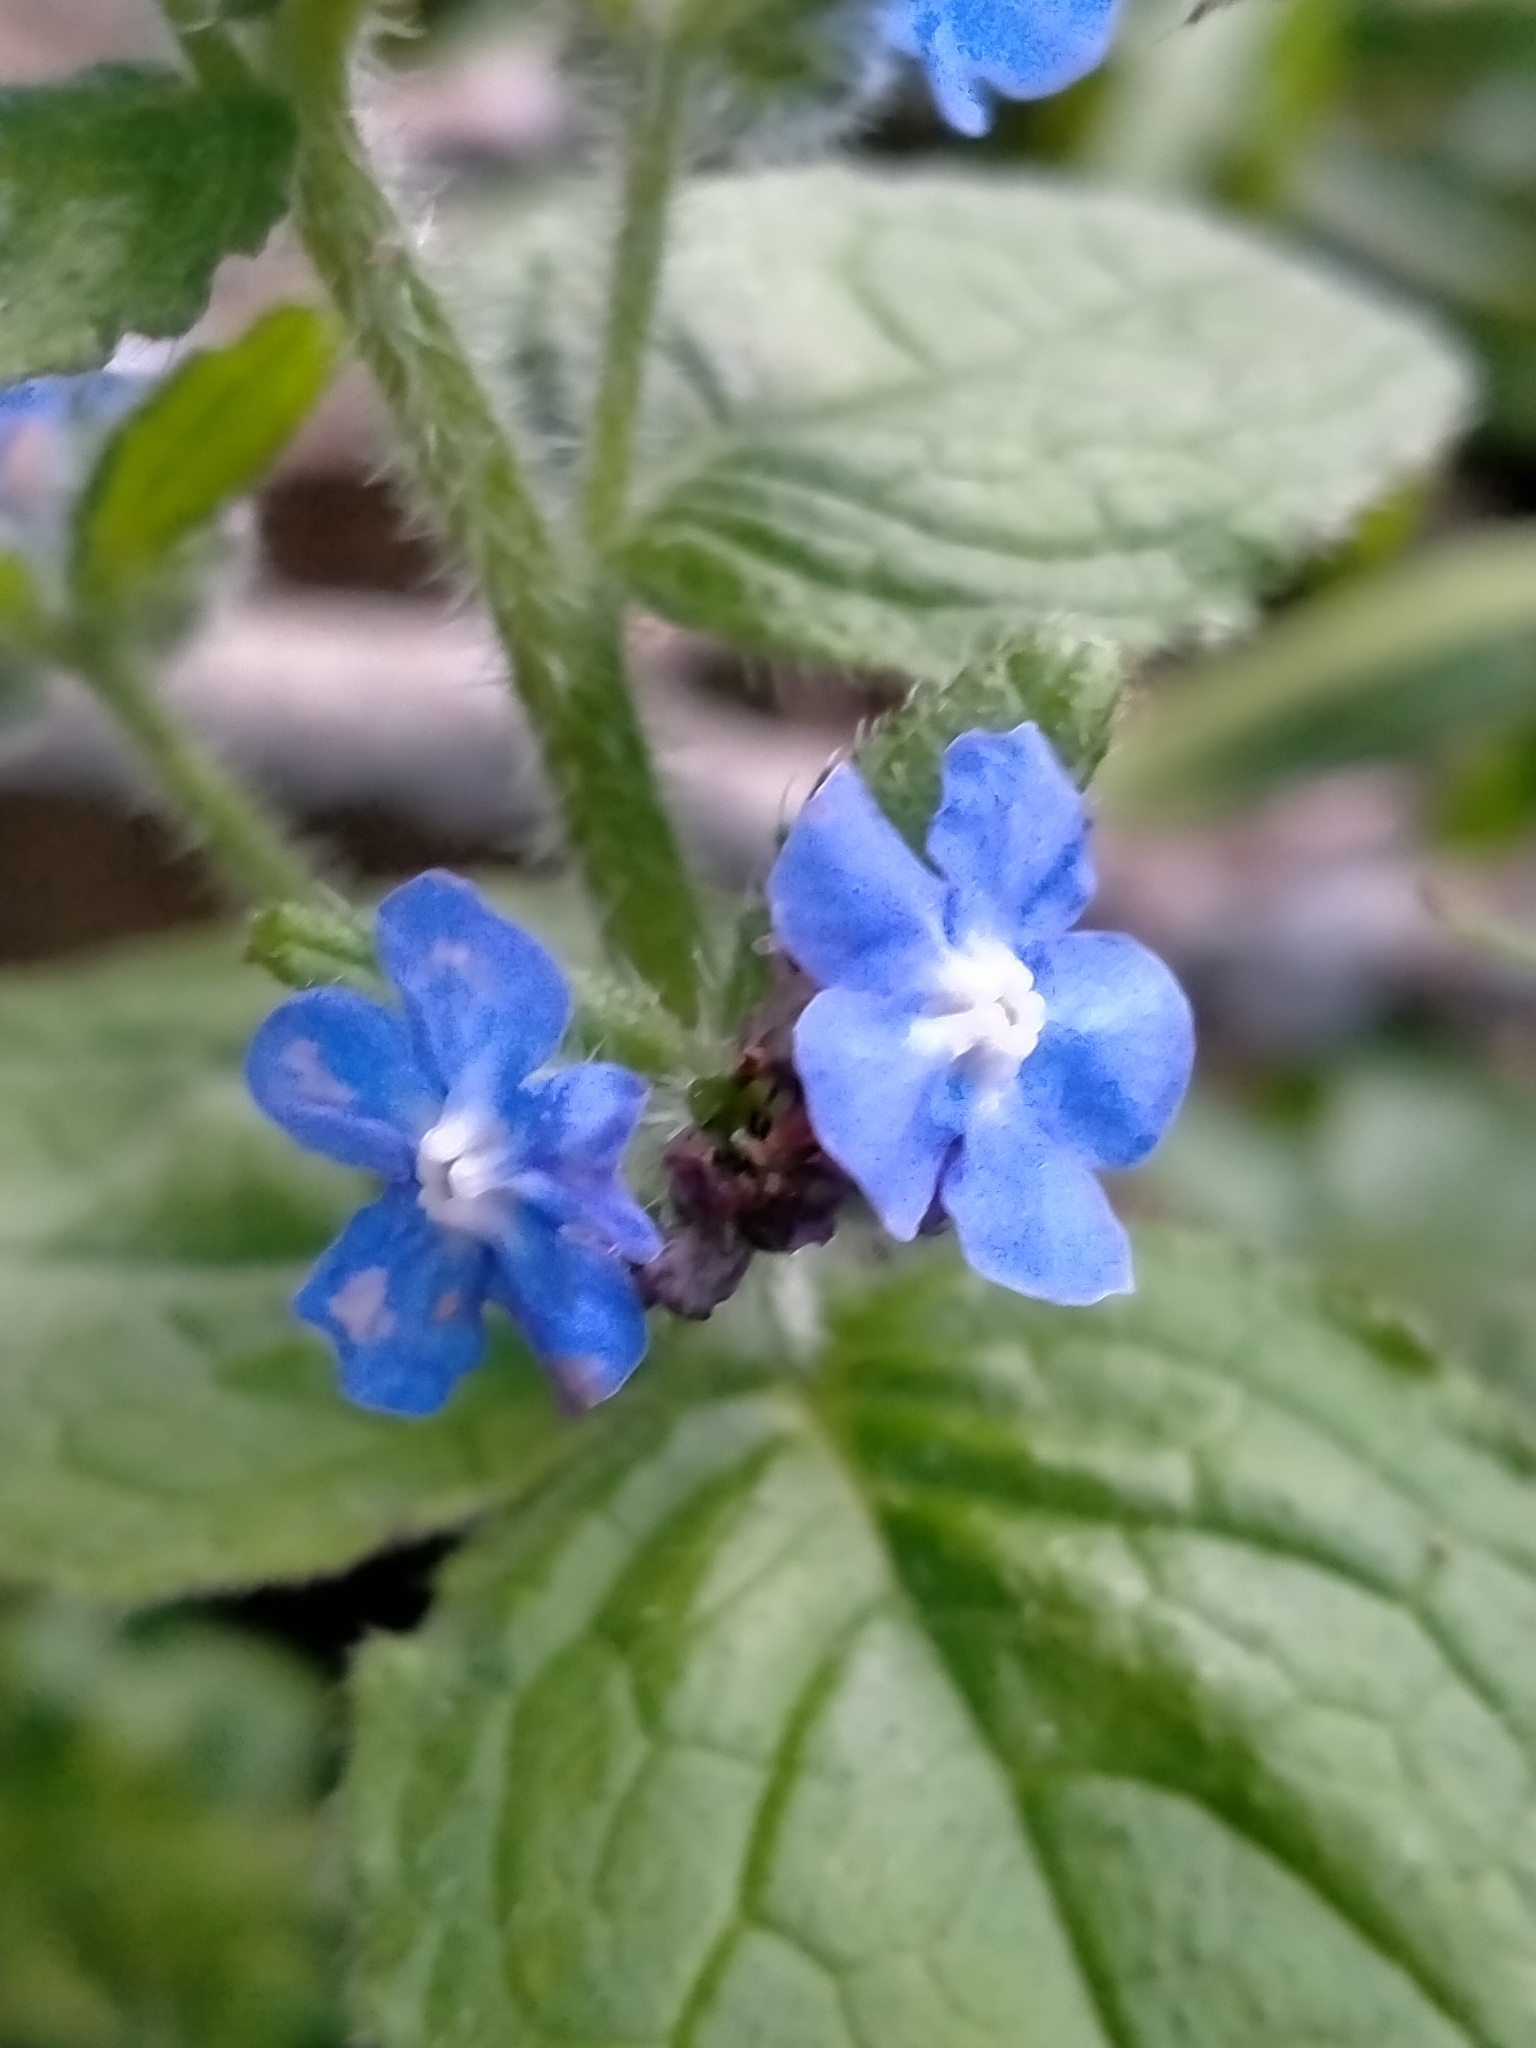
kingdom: Plantae
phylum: Tracheophyta
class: Magnoliopsida
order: Boraginales
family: Boraginaceae
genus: Pentaglottis
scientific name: Pentaglottis sempervirens
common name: Green alkanet
